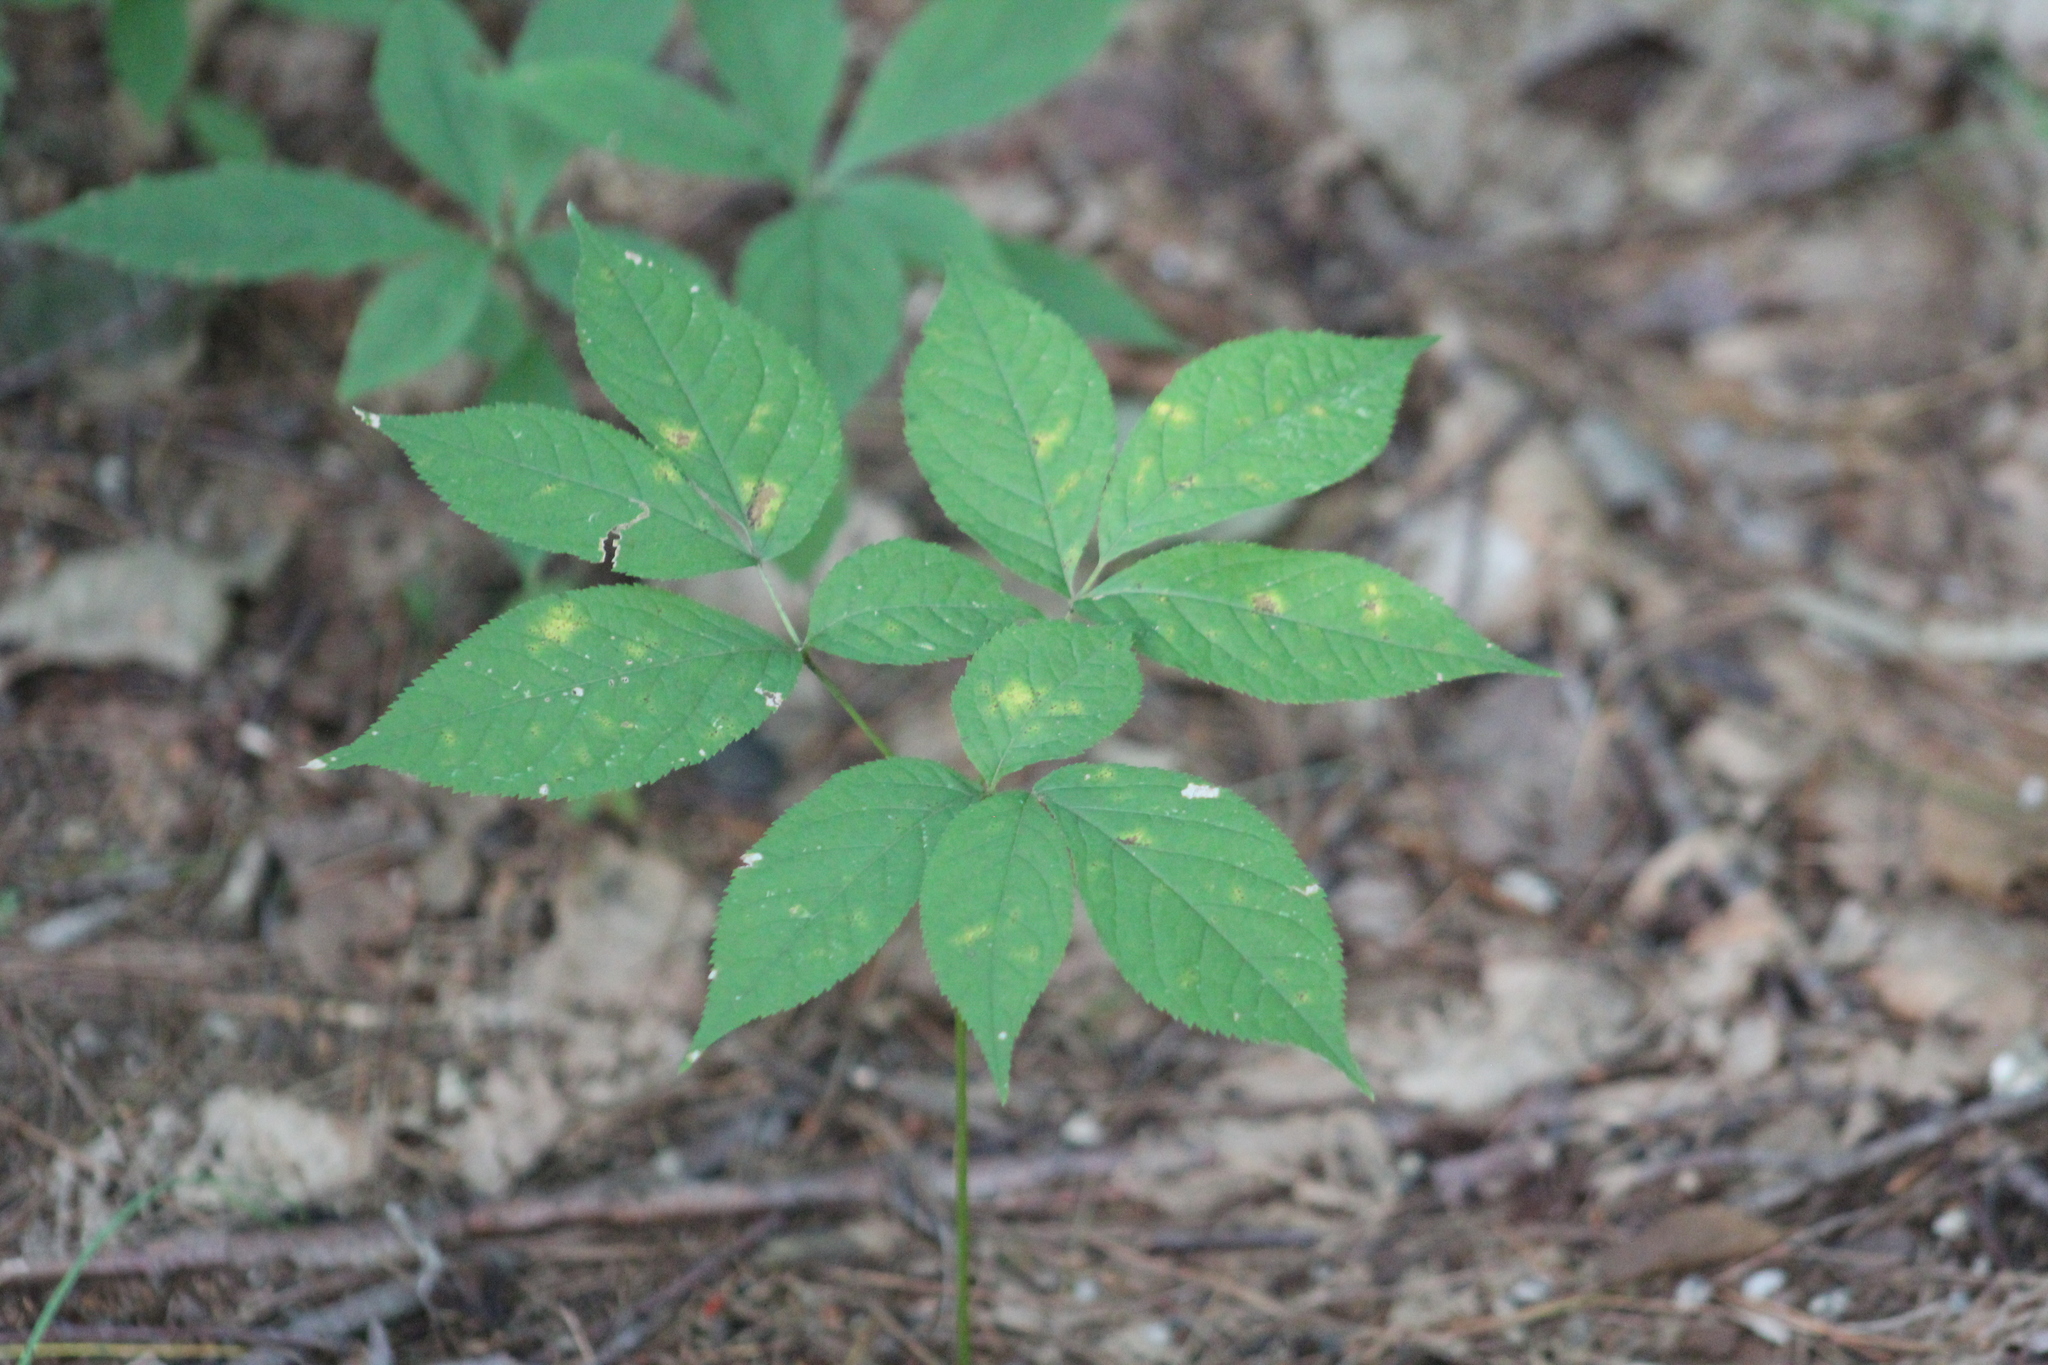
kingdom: Plantae
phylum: Tracheophyta
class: Magnoliopsida
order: Apiales
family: Araliaceae
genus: Aralia
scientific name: Aralia nudicaulis
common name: Wild sarsaparilla
